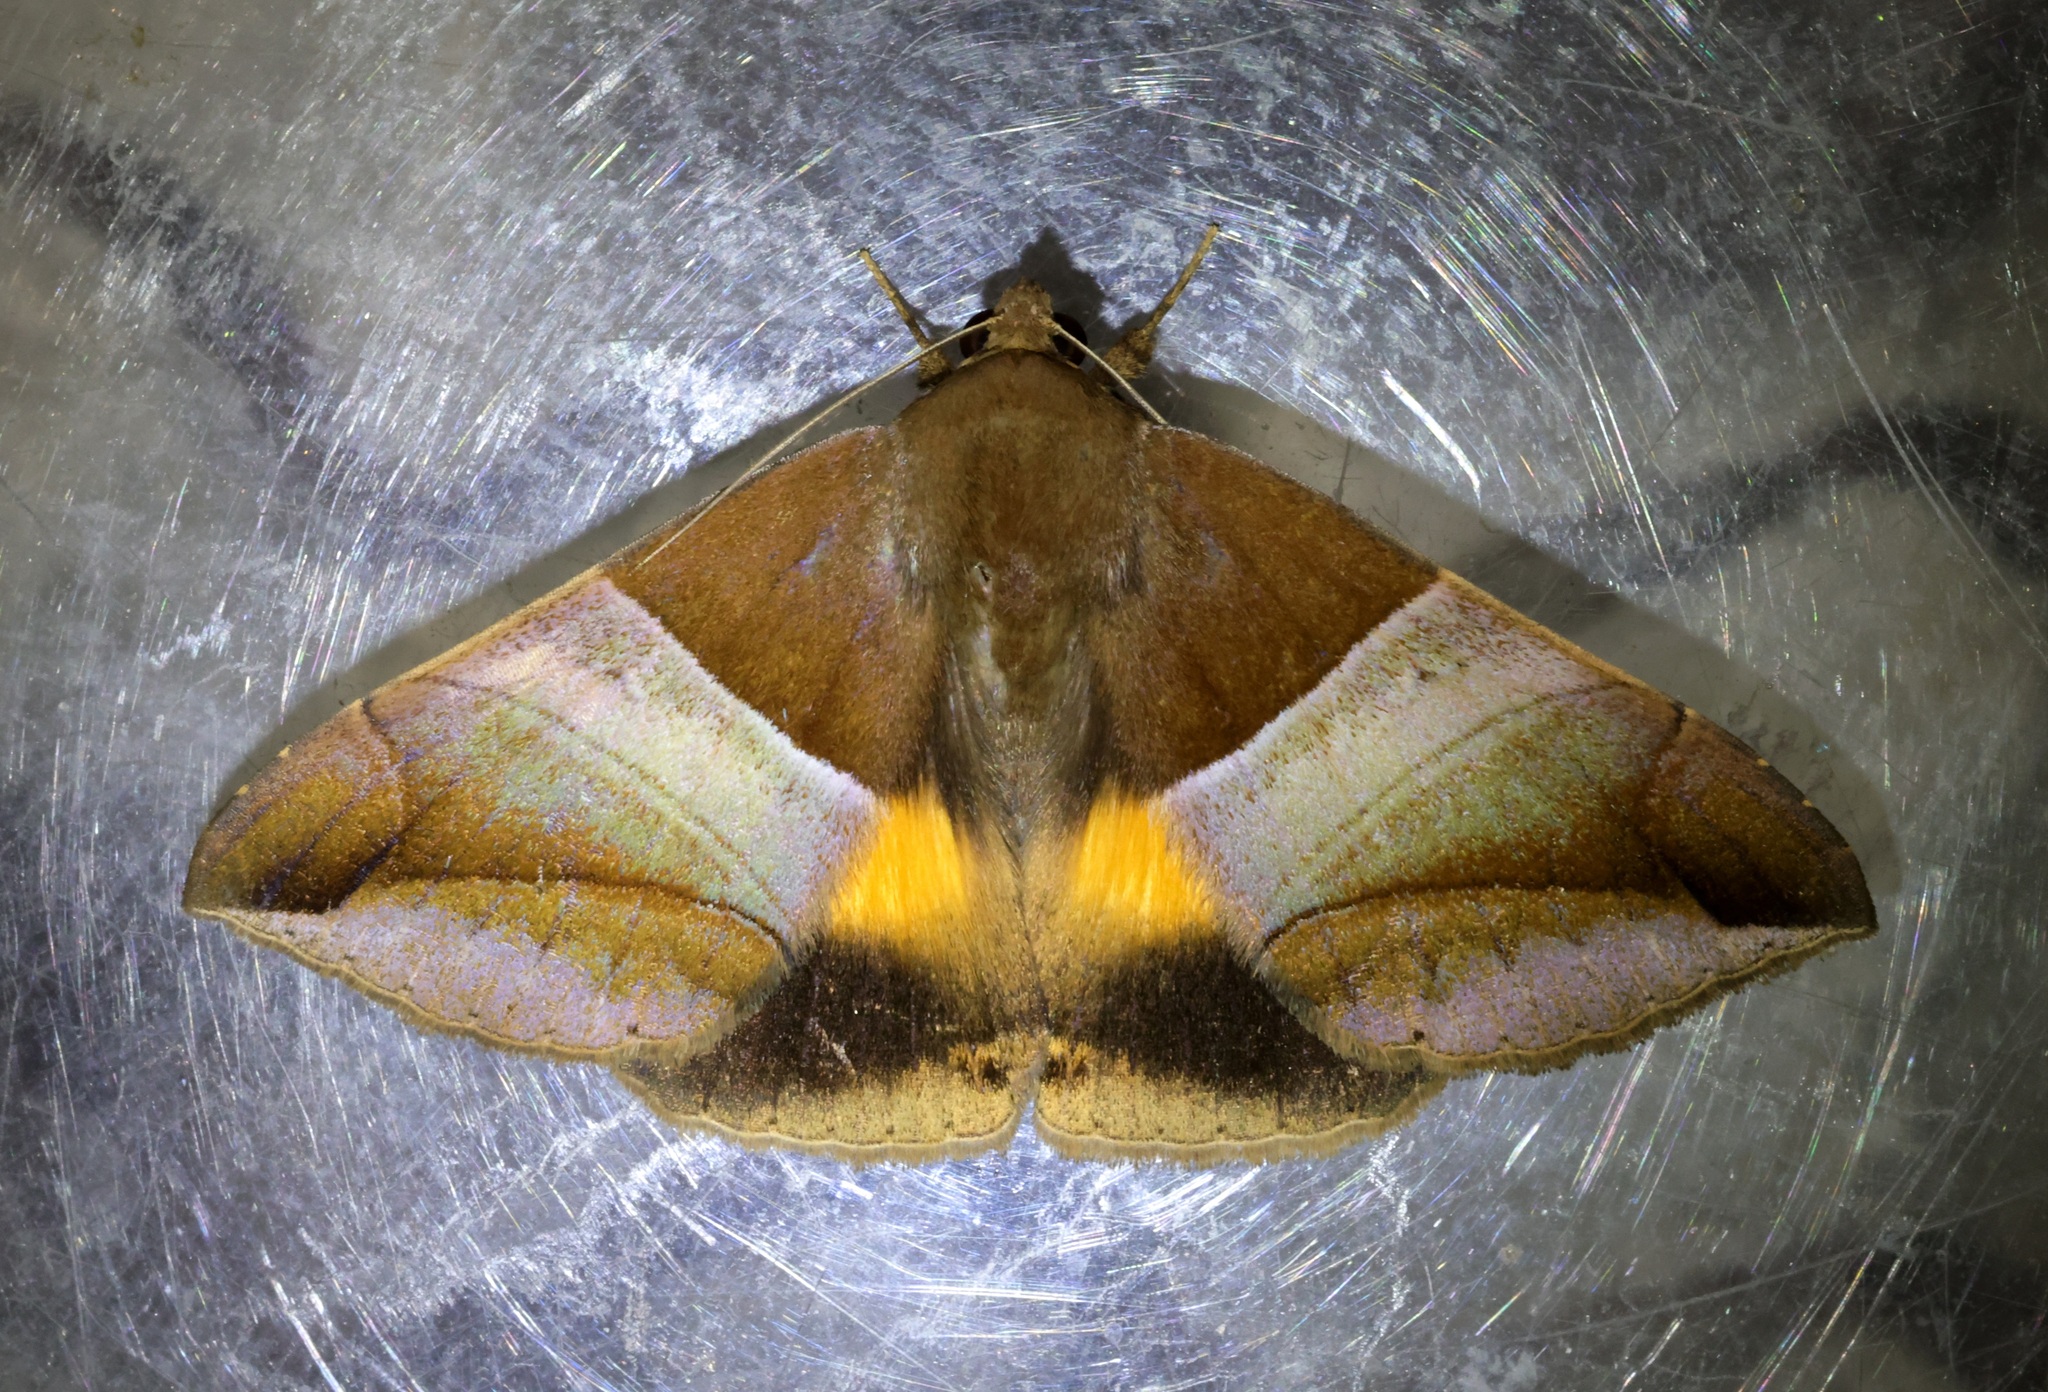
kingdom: Animalia
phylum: Arthropoda
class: Insecta
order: Lepidoptera
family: Erebidae
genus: Bastilla
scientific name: Bastilla fulvotaenia
